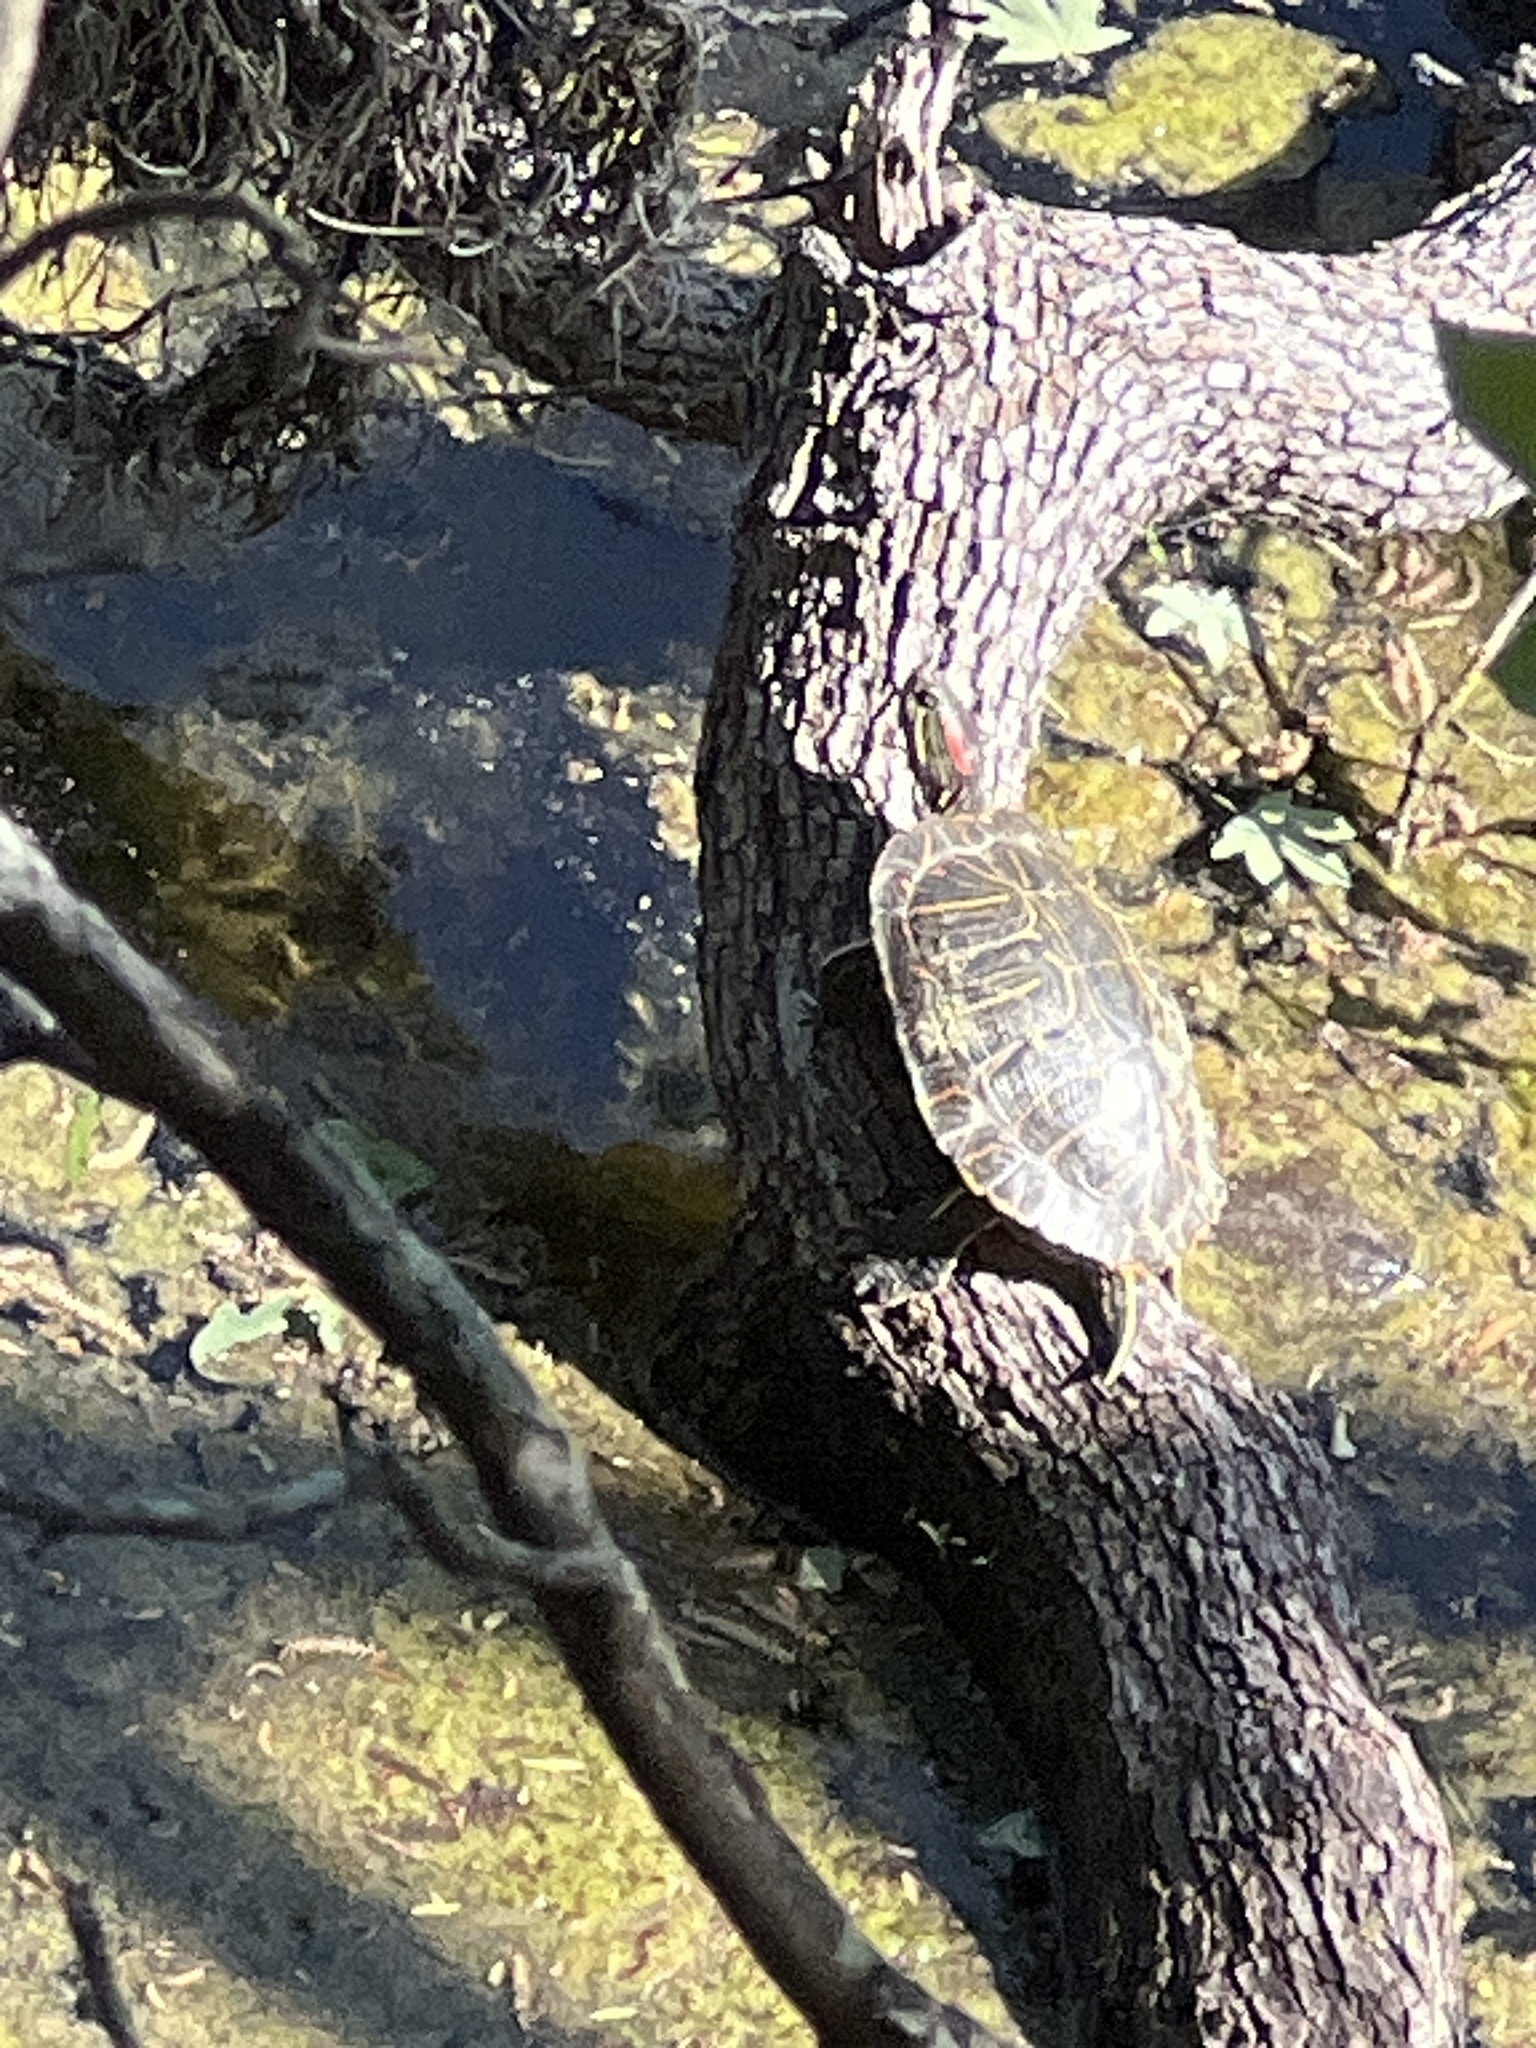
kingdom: Animalia
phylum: Chordata
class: Testudines
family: Emydidae
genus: Trachemys
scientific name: Trachemys scripta
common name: Slider
